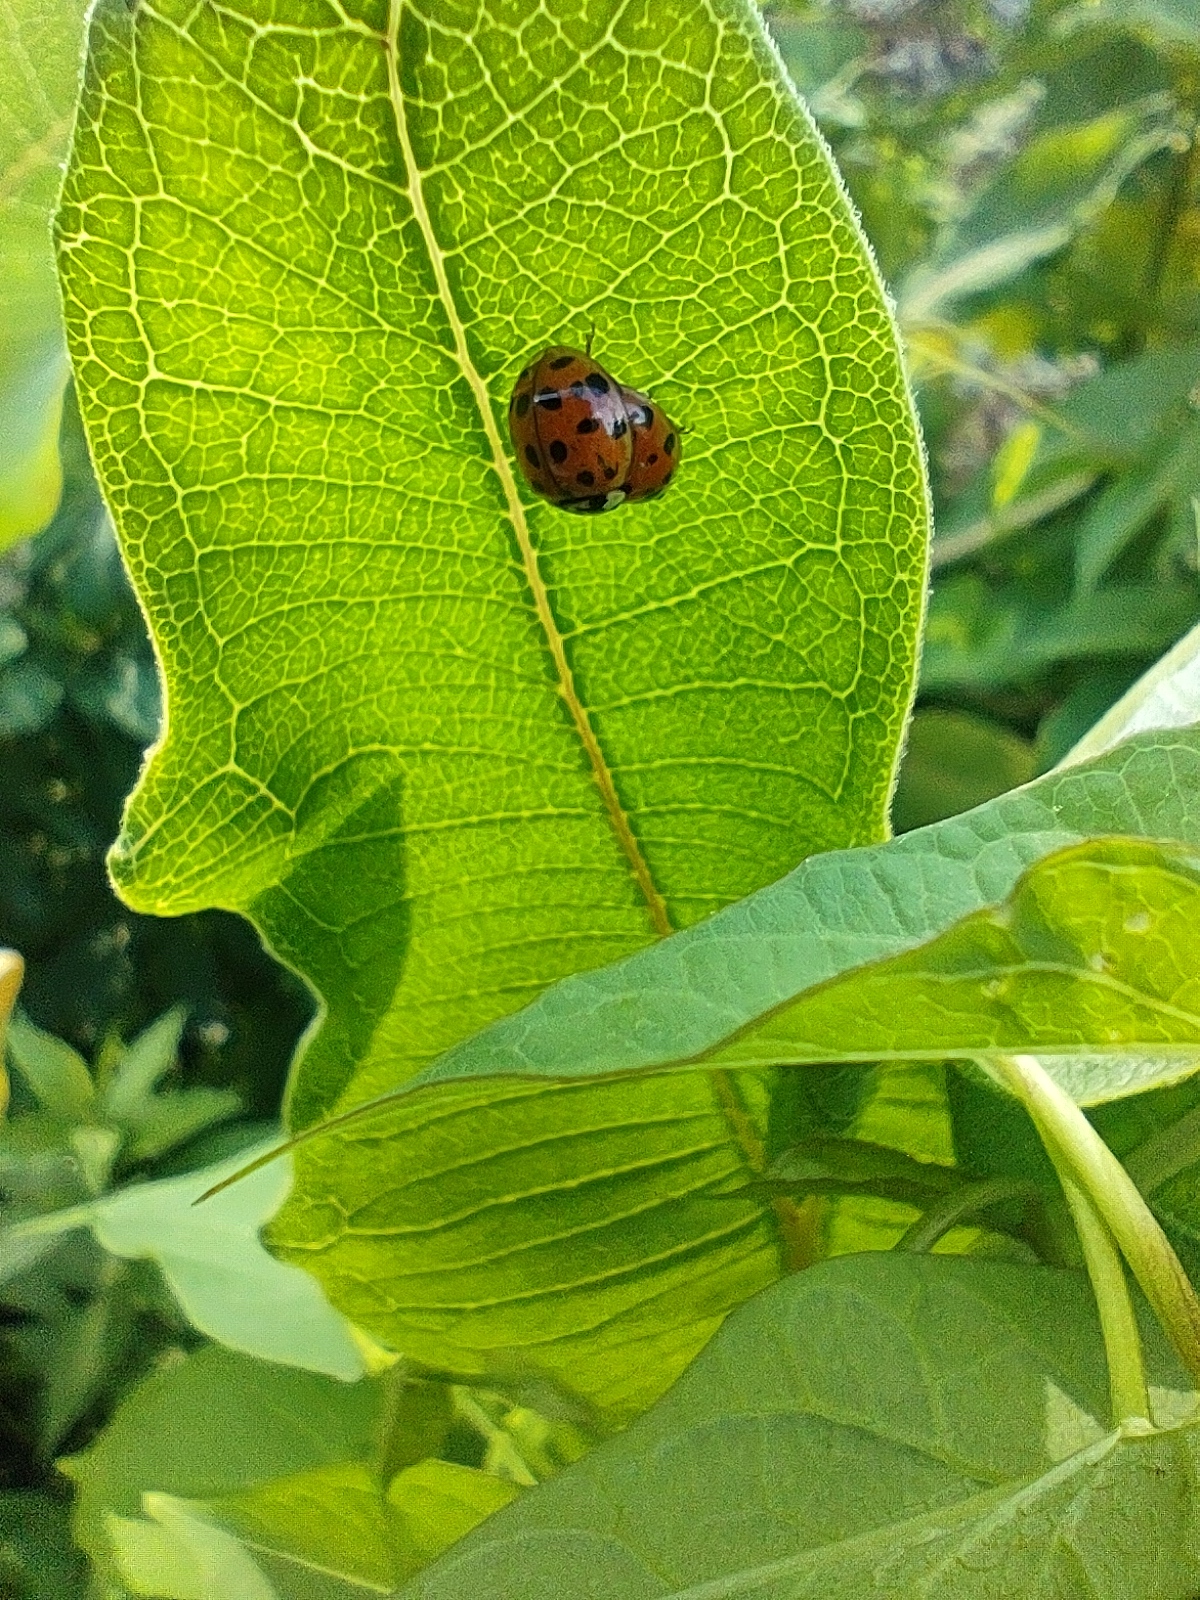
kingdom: Animalia
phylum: Arthropoda
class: Insecta
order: Coleoptera
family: Coccinellidae
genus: Harmonia
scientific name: Harmonia axyridis
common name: Harlequin ladybird
